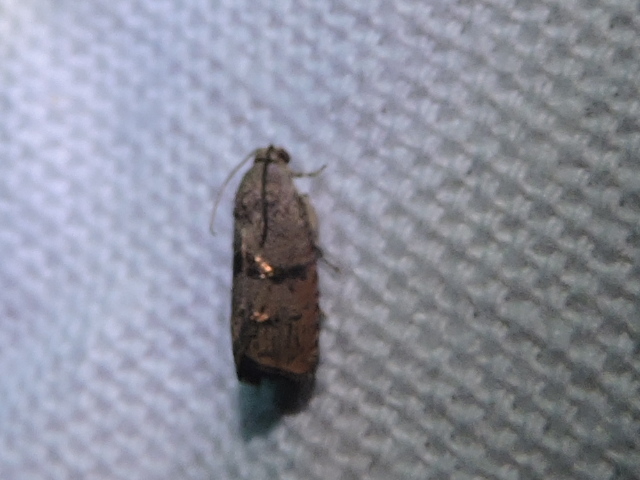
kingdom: Animalia
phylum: Arthropoda
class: Insecta
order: Lepidoptera
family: Tortricidae
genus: Cydia
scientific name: Cydia latiferreana
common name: Filbertworm moth
